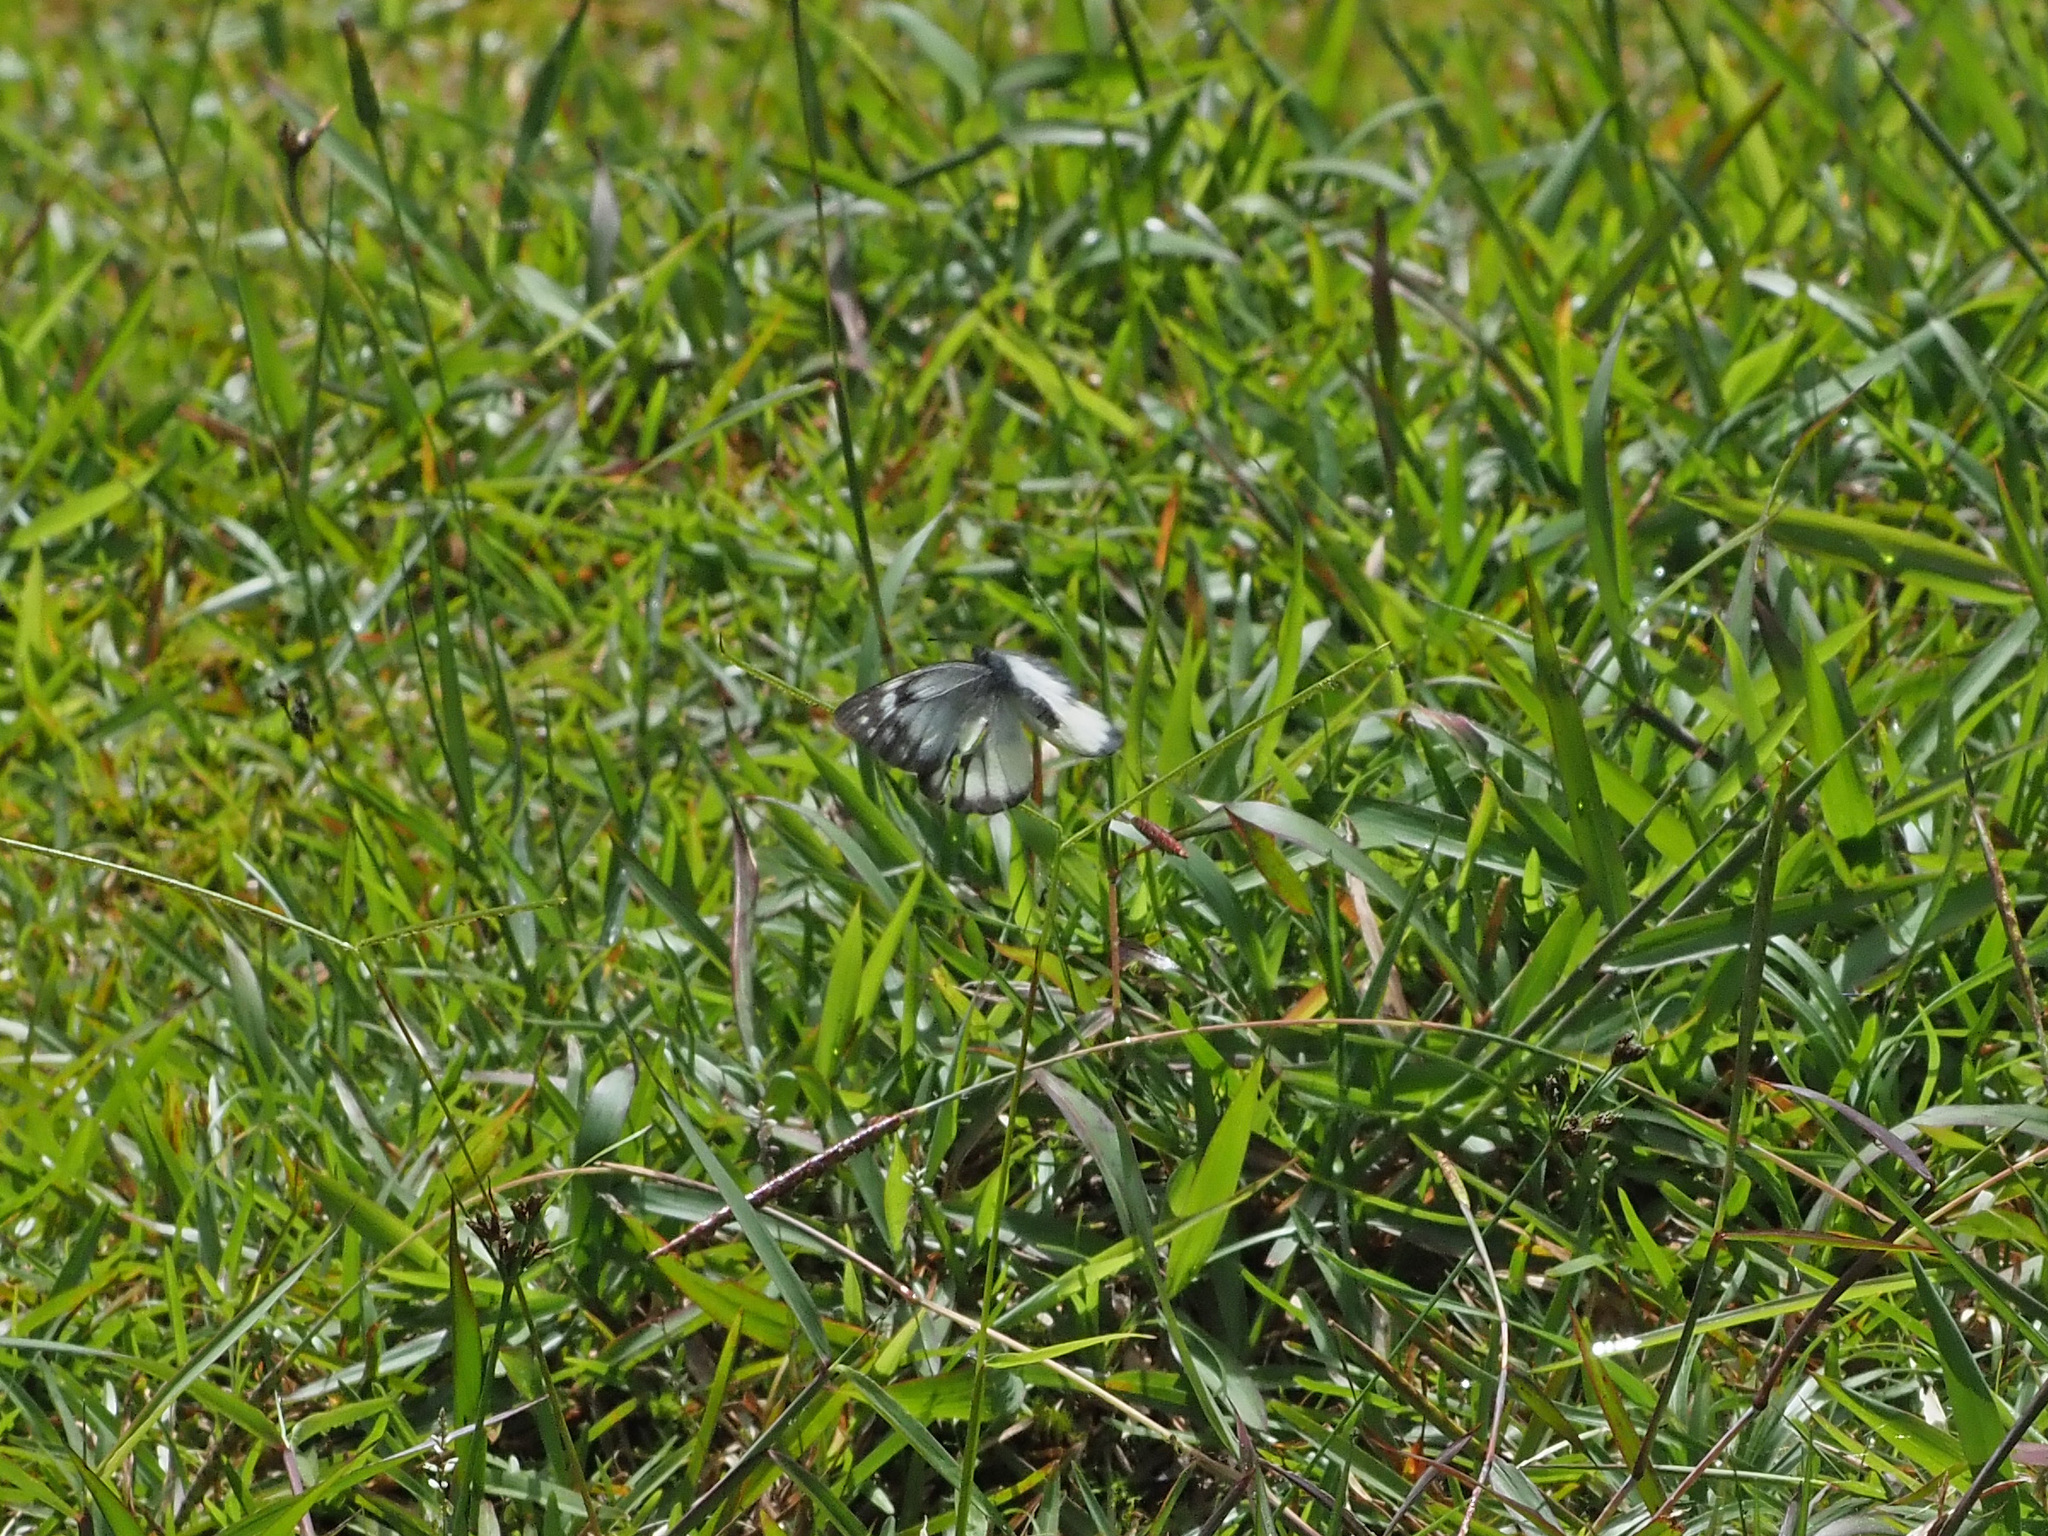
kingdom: Animalia
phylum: Arthropoda
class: Insecta
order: Lepidoptera
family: Pieridae
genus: Delias
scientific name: Delias cinerascens
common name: Kinabalu jezebel
